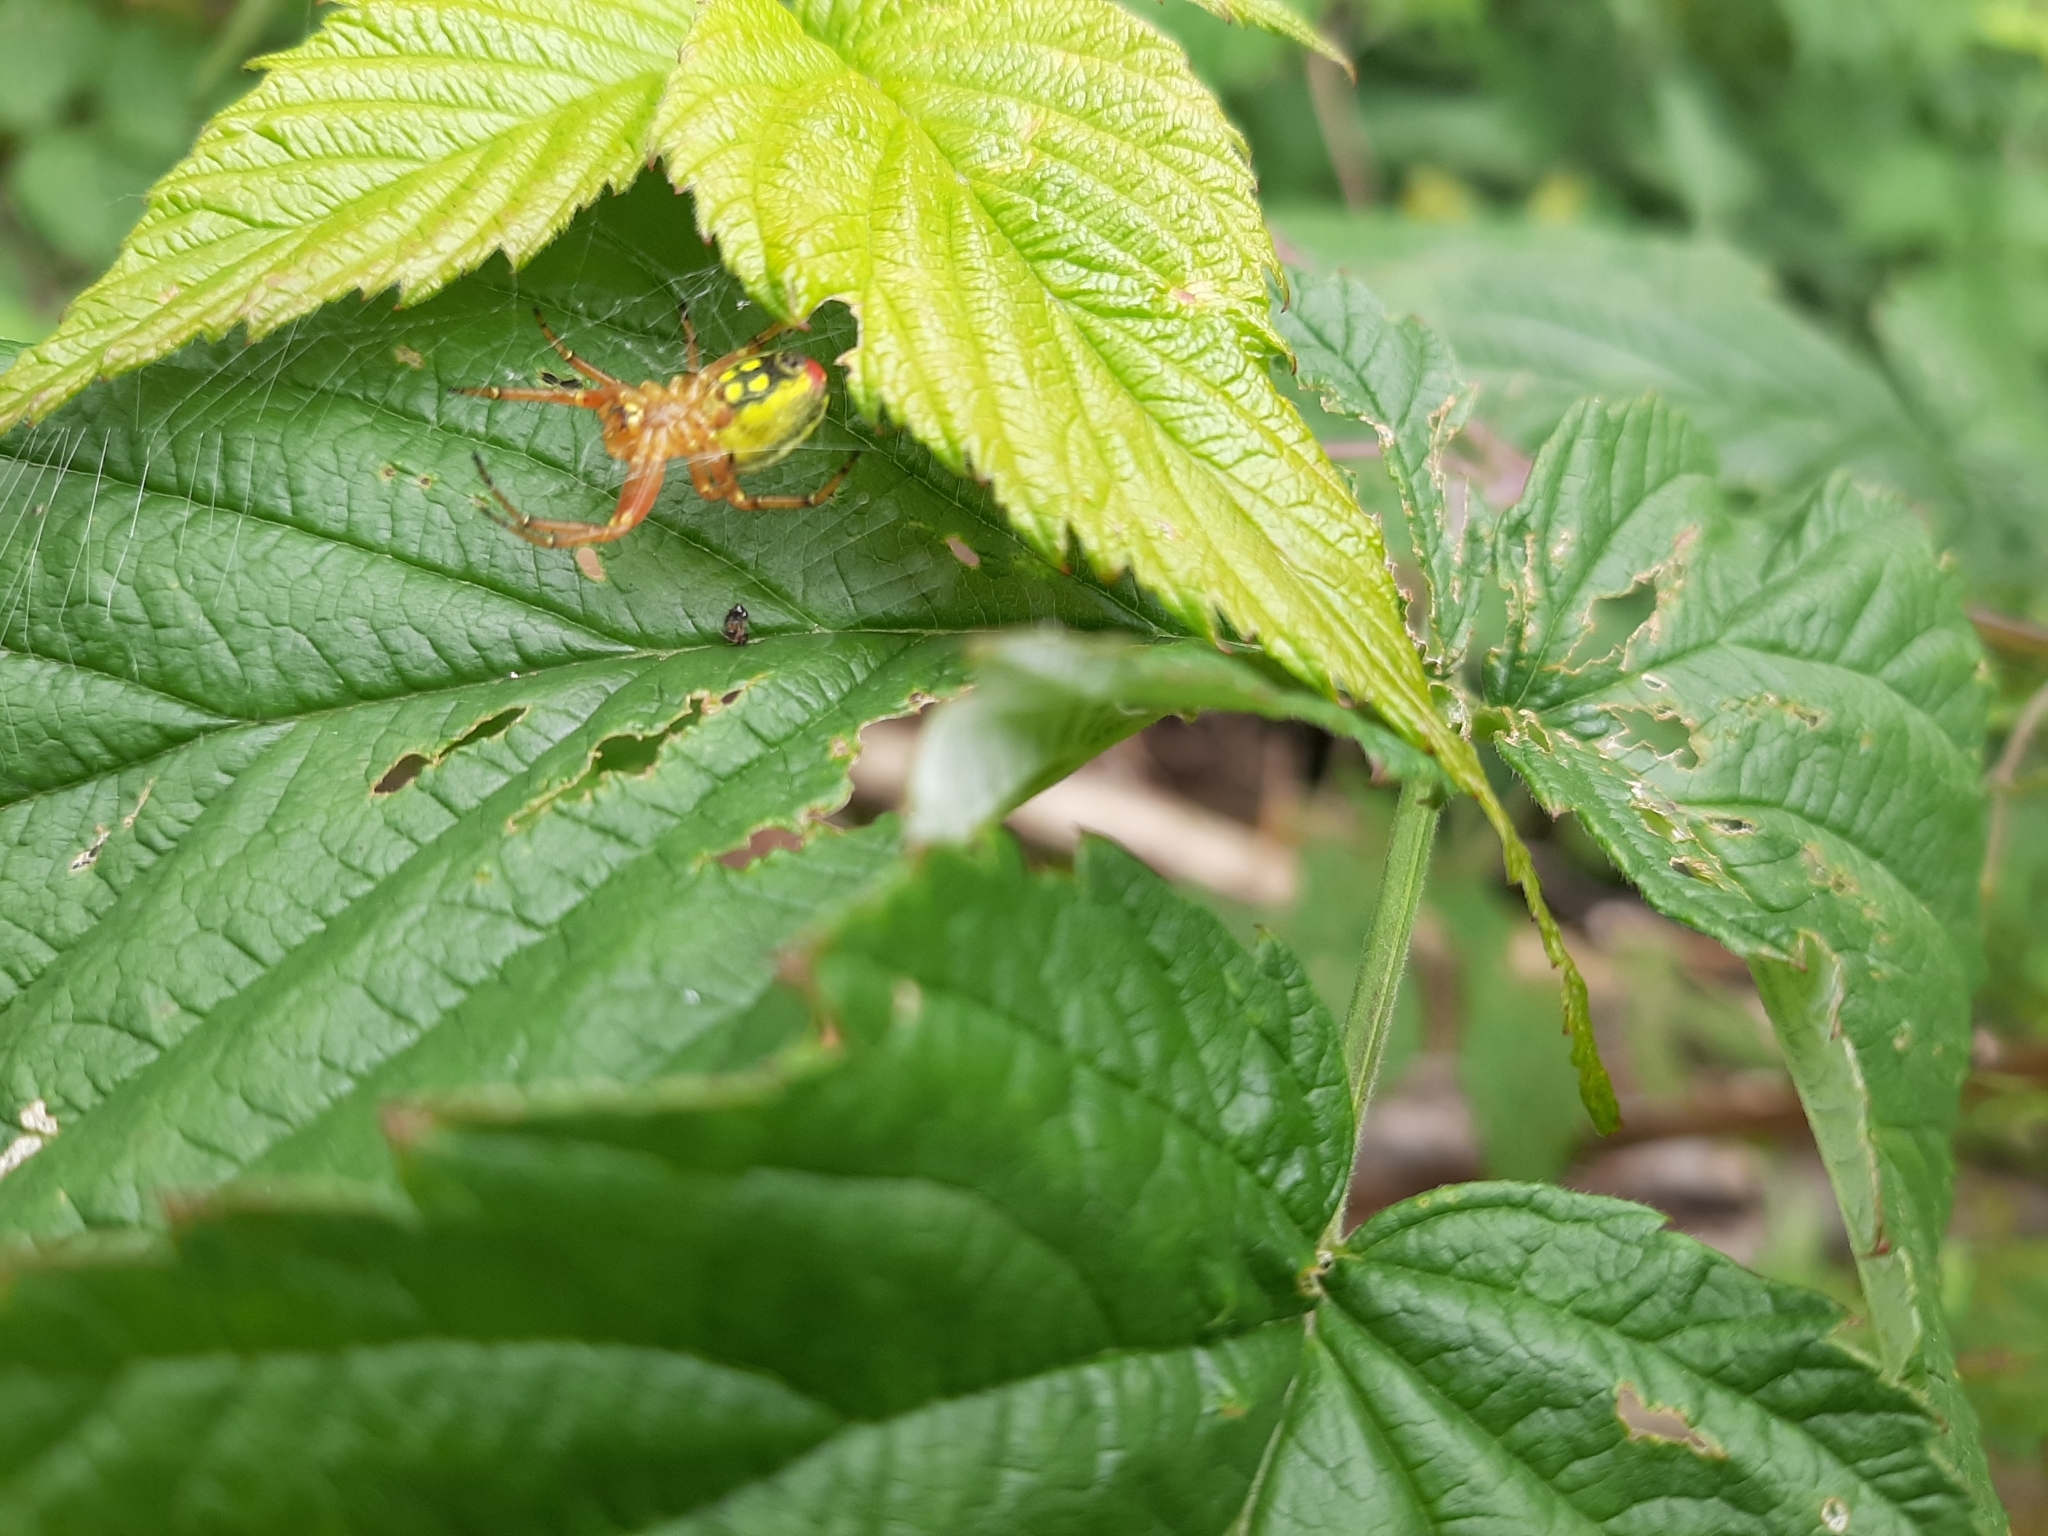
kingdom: Animalia
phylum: Arthropoda
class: Arachnida
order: Araneae
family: Araneidae
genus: Araniella
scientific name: Araniella alpica
